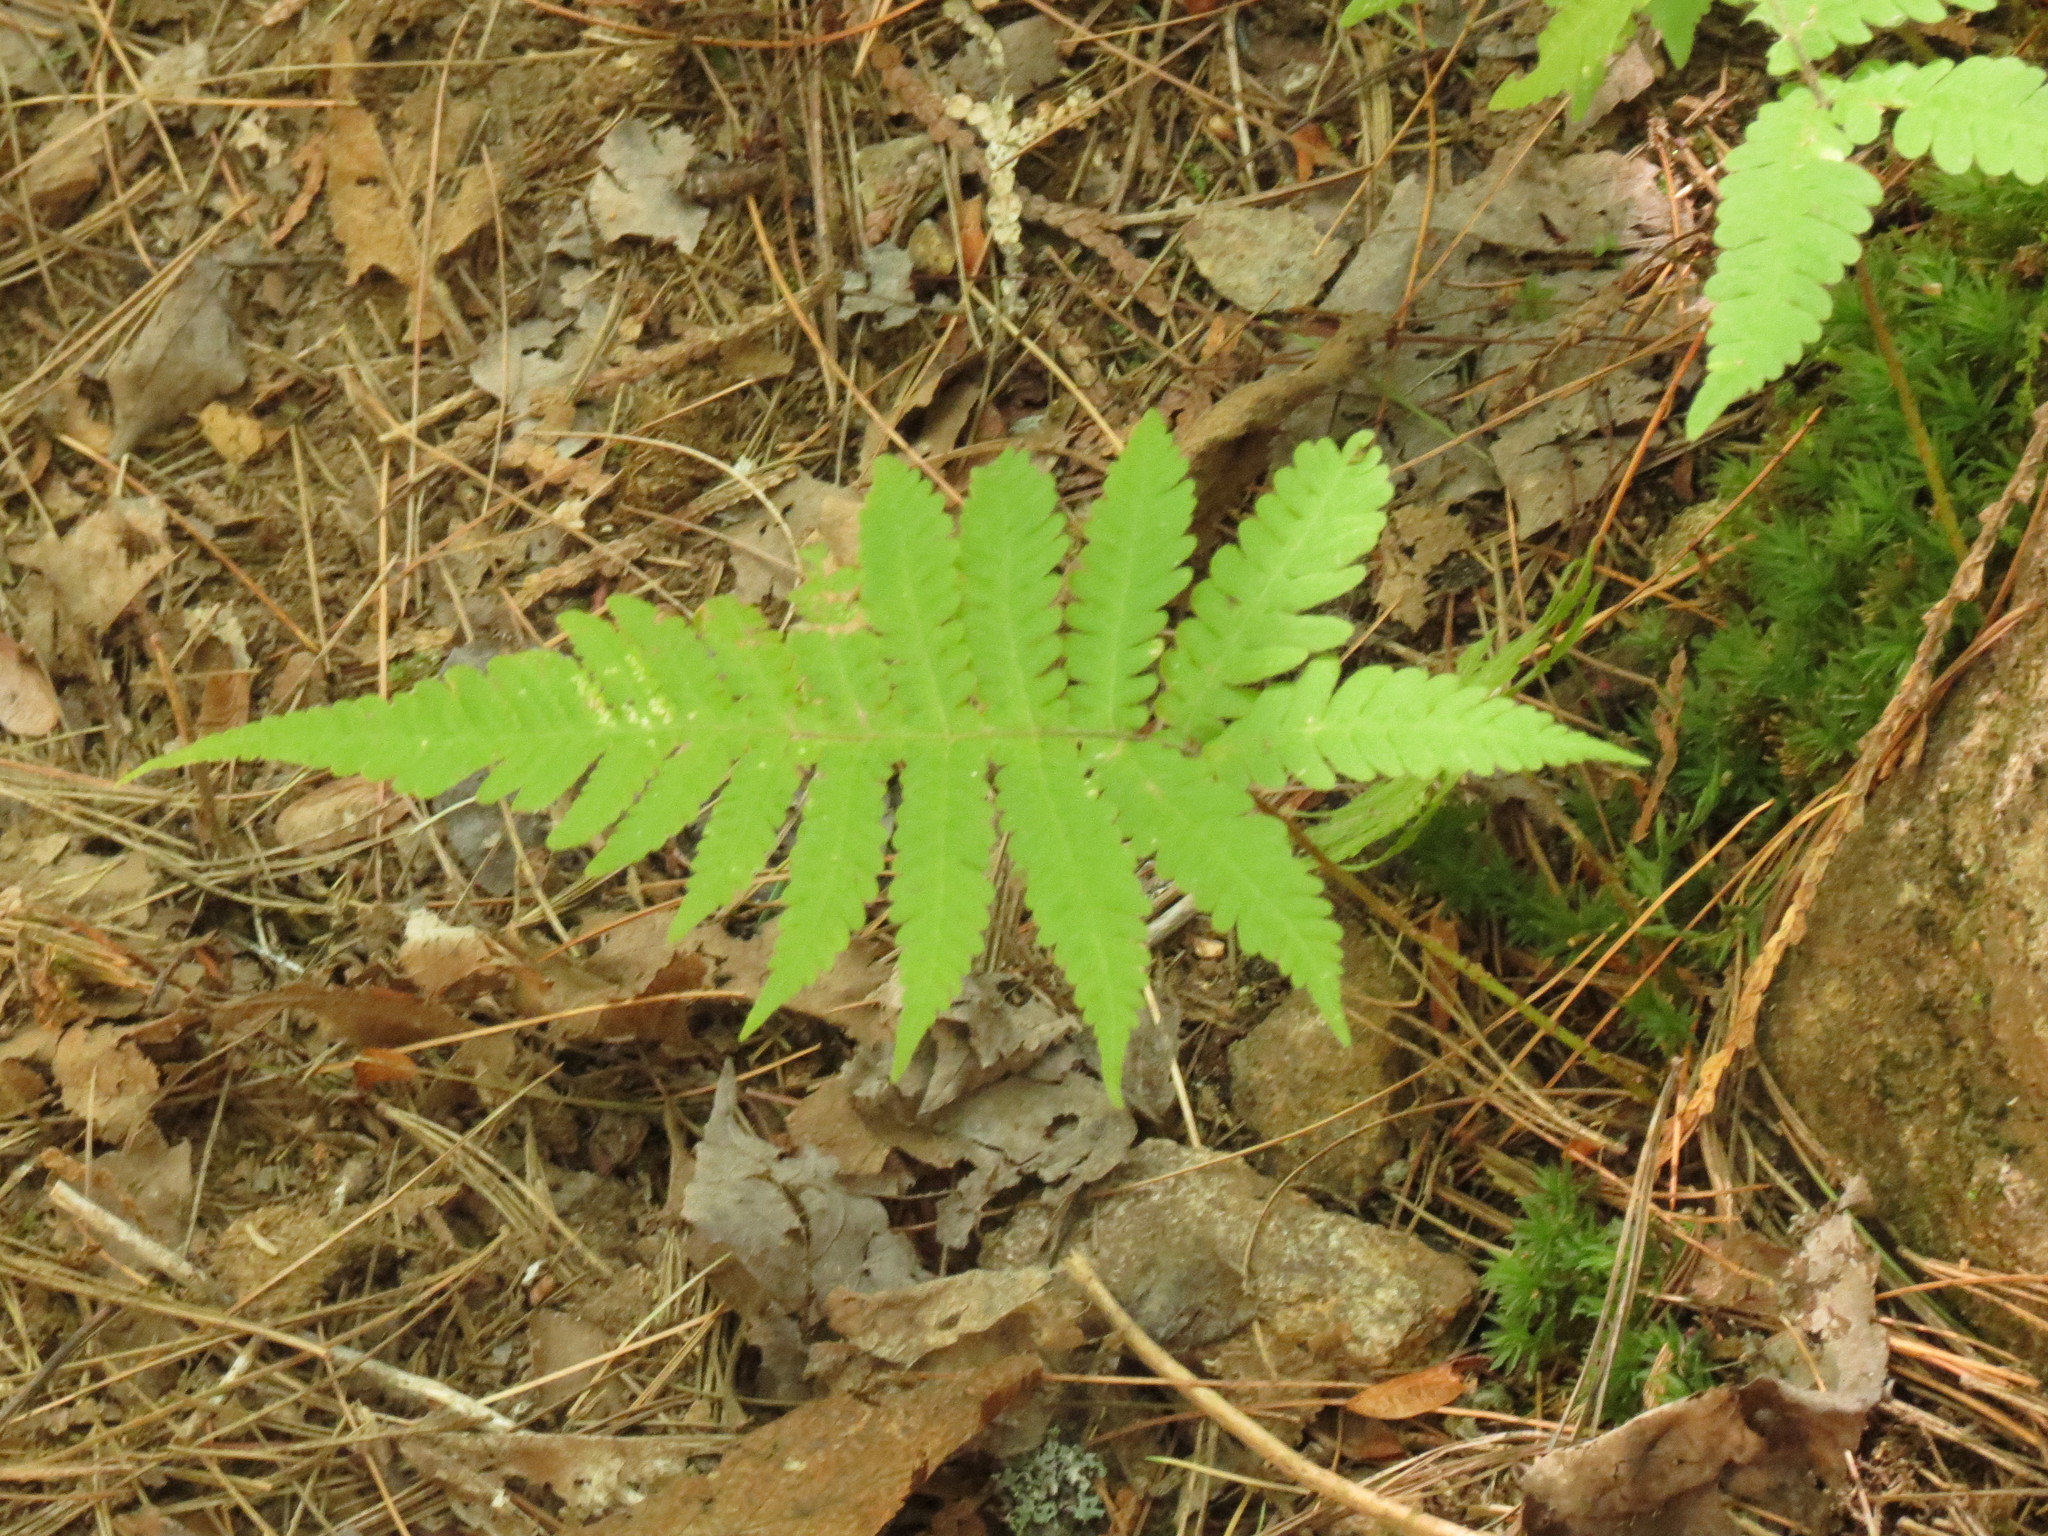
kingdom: Plantae
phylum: Tracheophyta
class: Polypodiopsida
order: Polypodiales
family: Thelypteridaceae
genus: Phegopteris
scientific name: Phegopteris connectilis
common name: Beech fern
